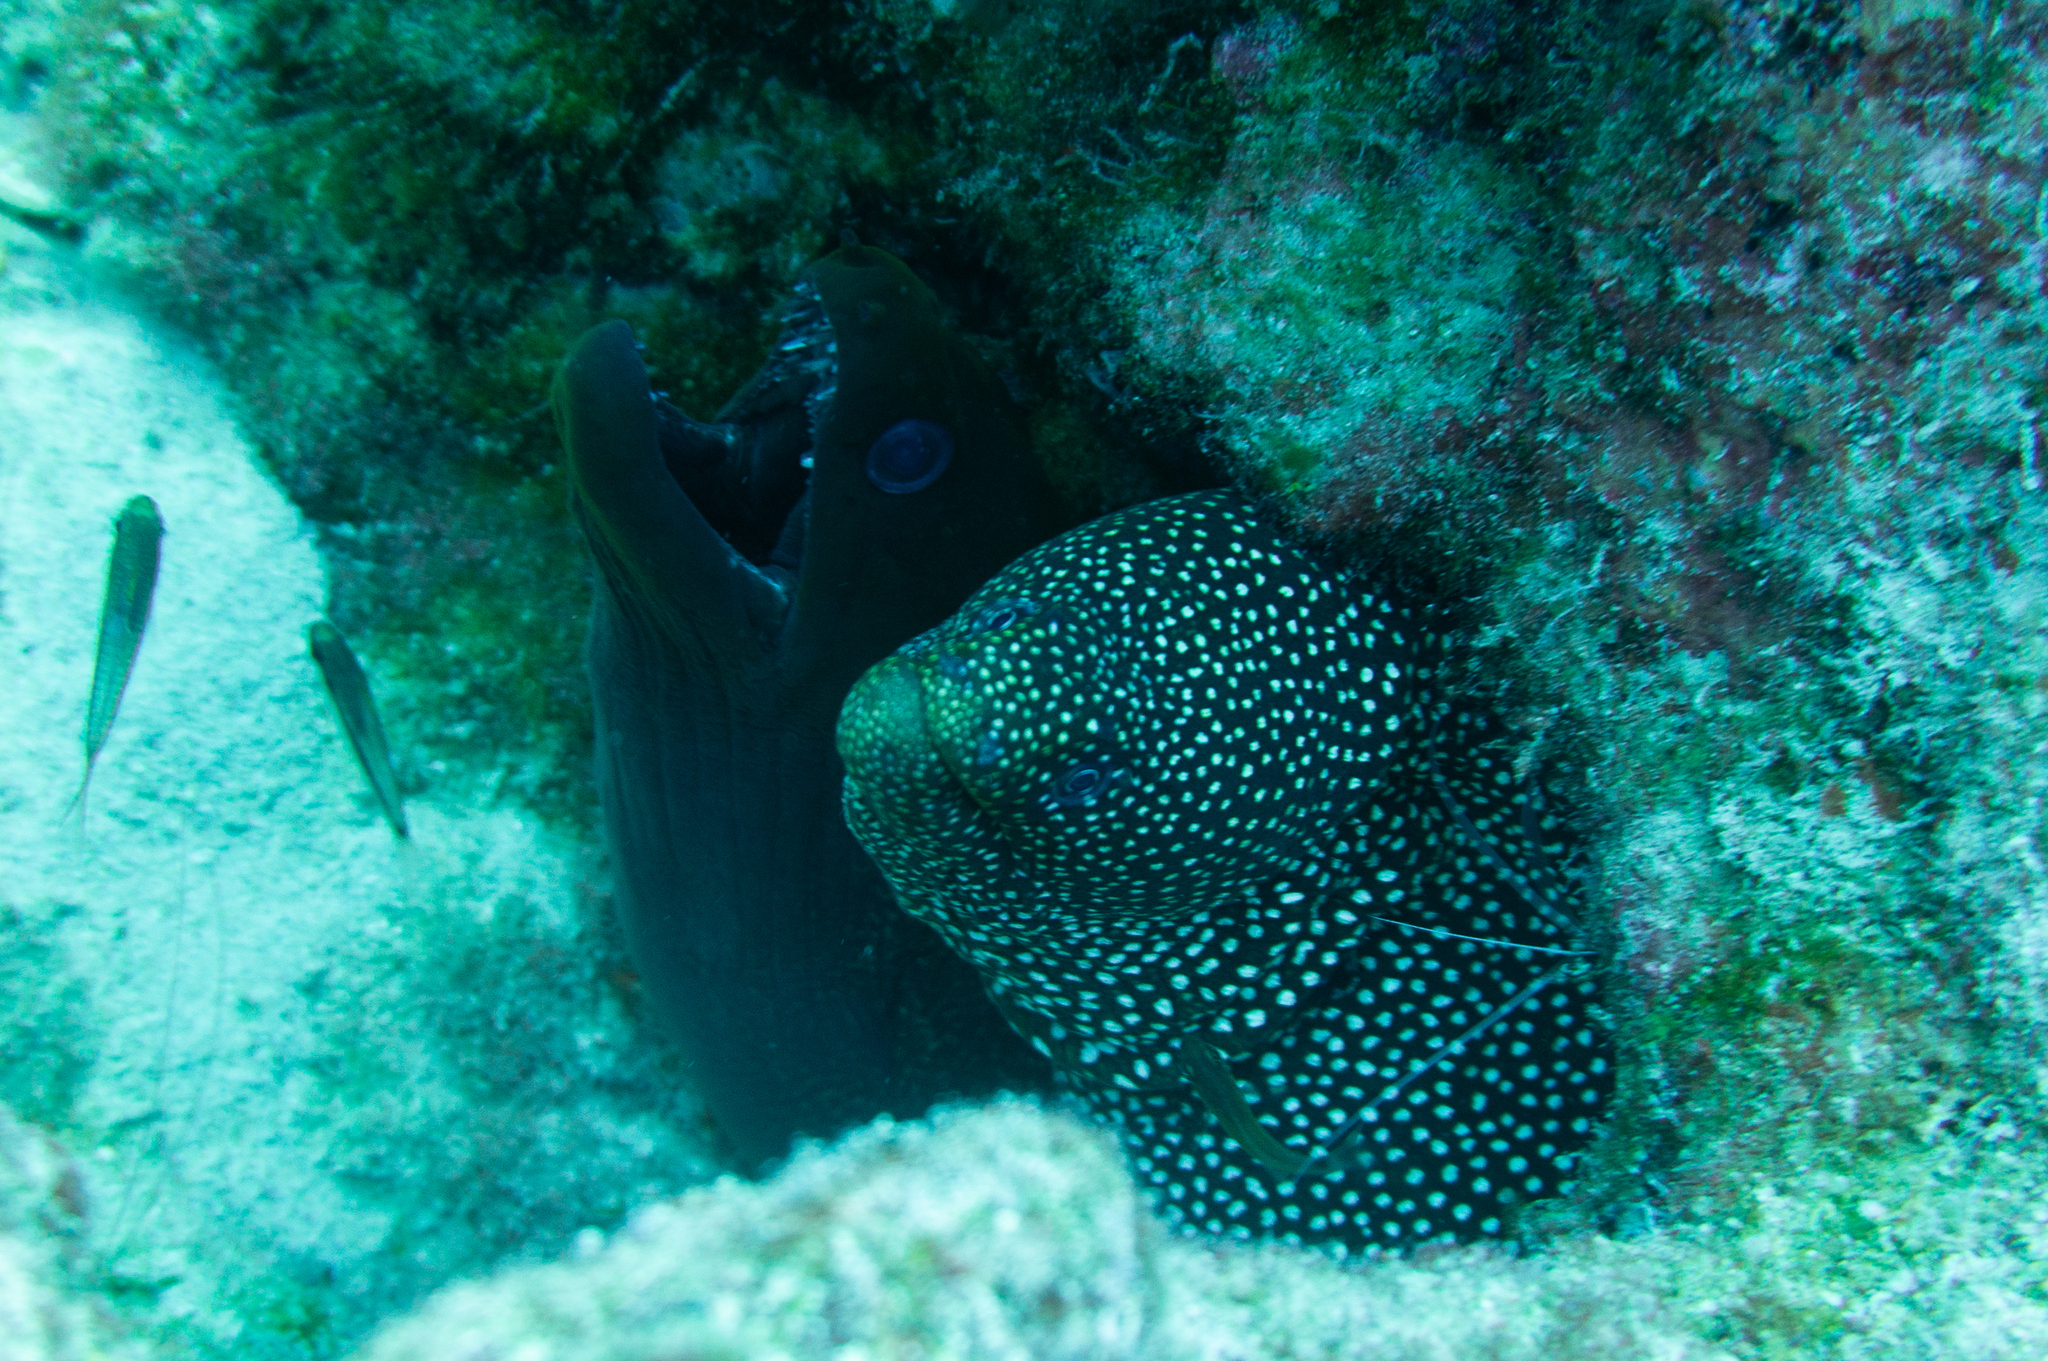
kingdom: Animalia
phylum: Chordata
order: Anguilliformes
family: Muraenidae
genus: Gymnothorax
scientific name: Gymnothorax meleagris
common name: Guineafowl moray
